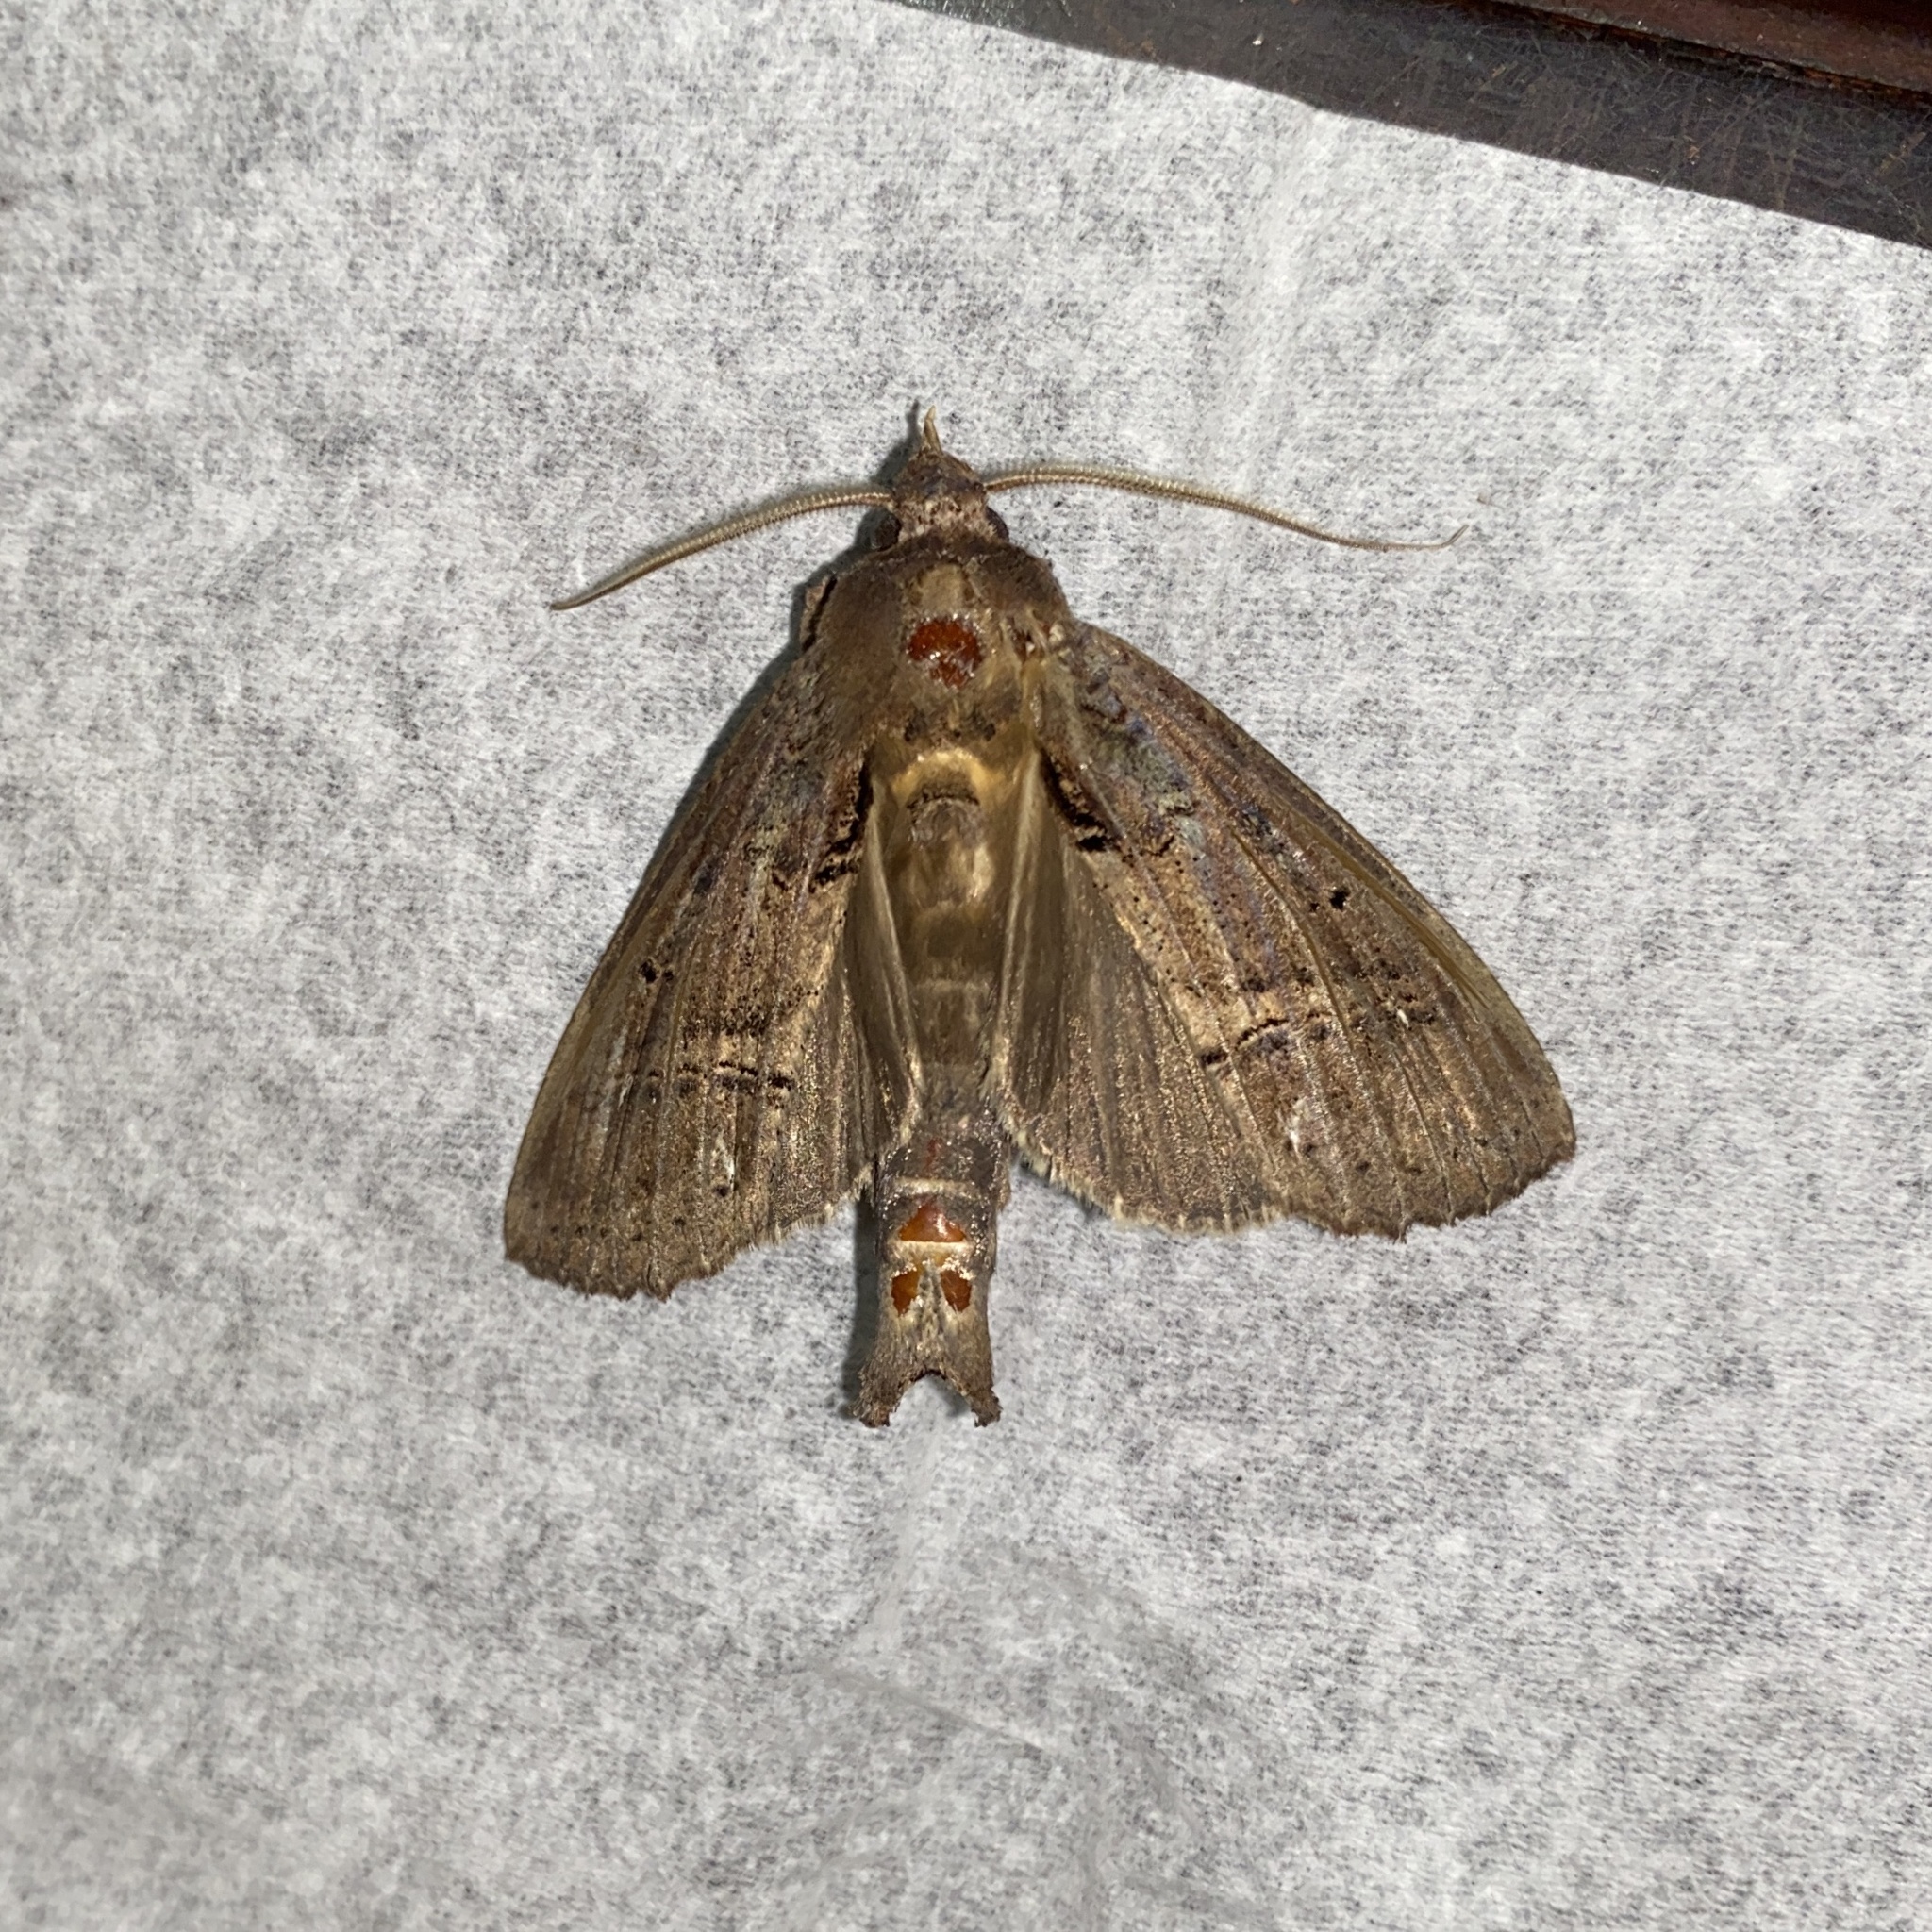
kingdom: Animalia
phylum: Arthropoda
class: Insecta
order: Lepidoptera
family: Notodontidae
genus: Bardaxima
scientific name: Bardaxima marcida
